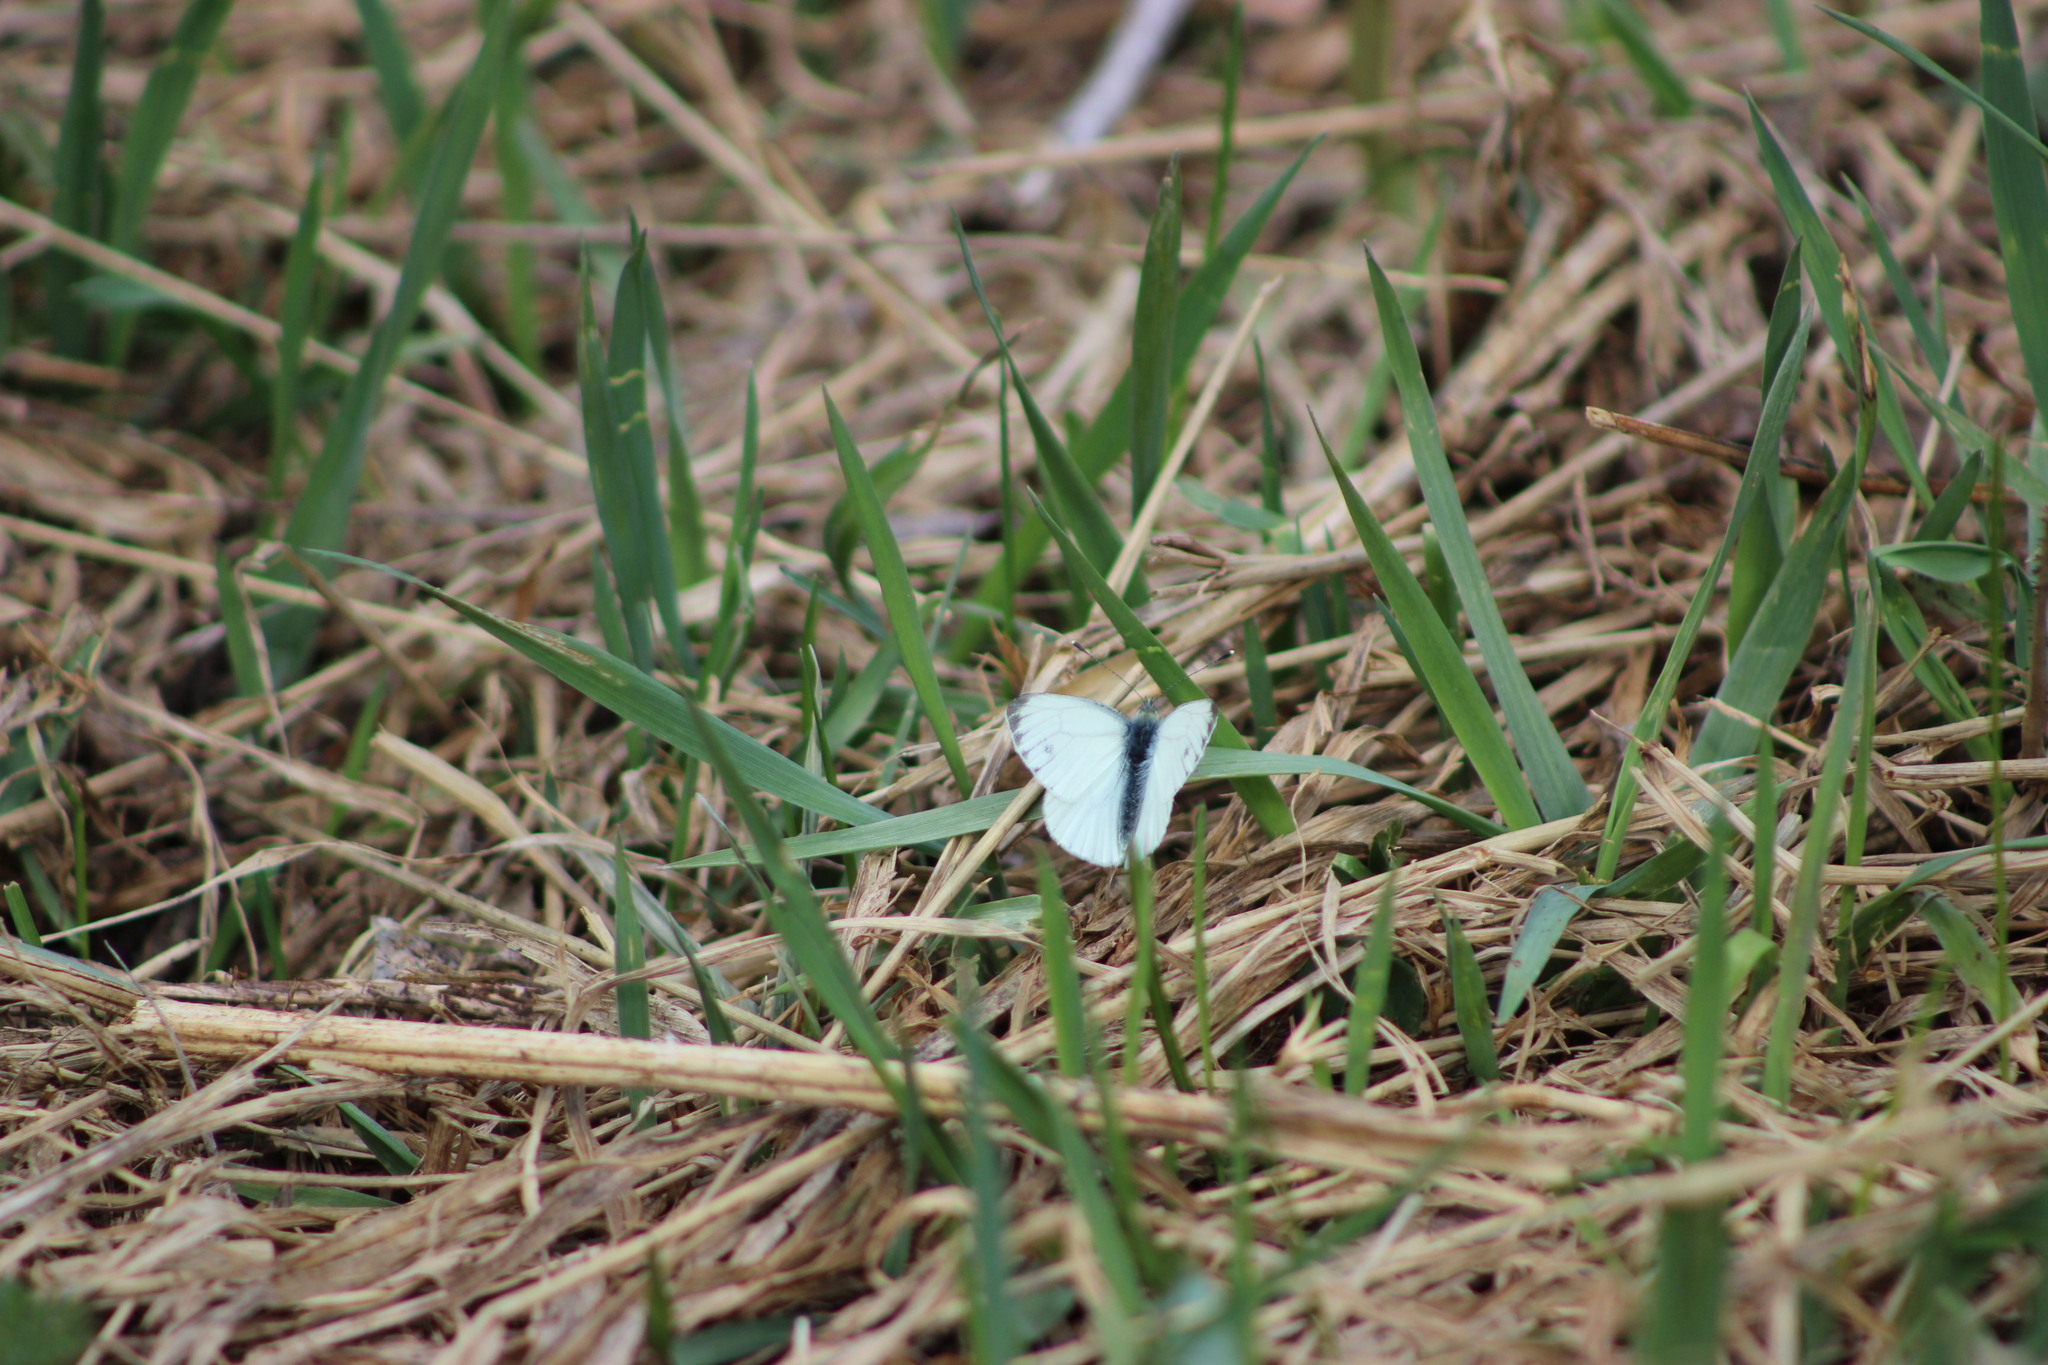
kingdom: Animalia
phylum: Arthropoda
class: Insecta
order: Lepidoptera
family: Pieridae
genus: Pieris
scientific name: Pieris napi
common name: Green-veined white
